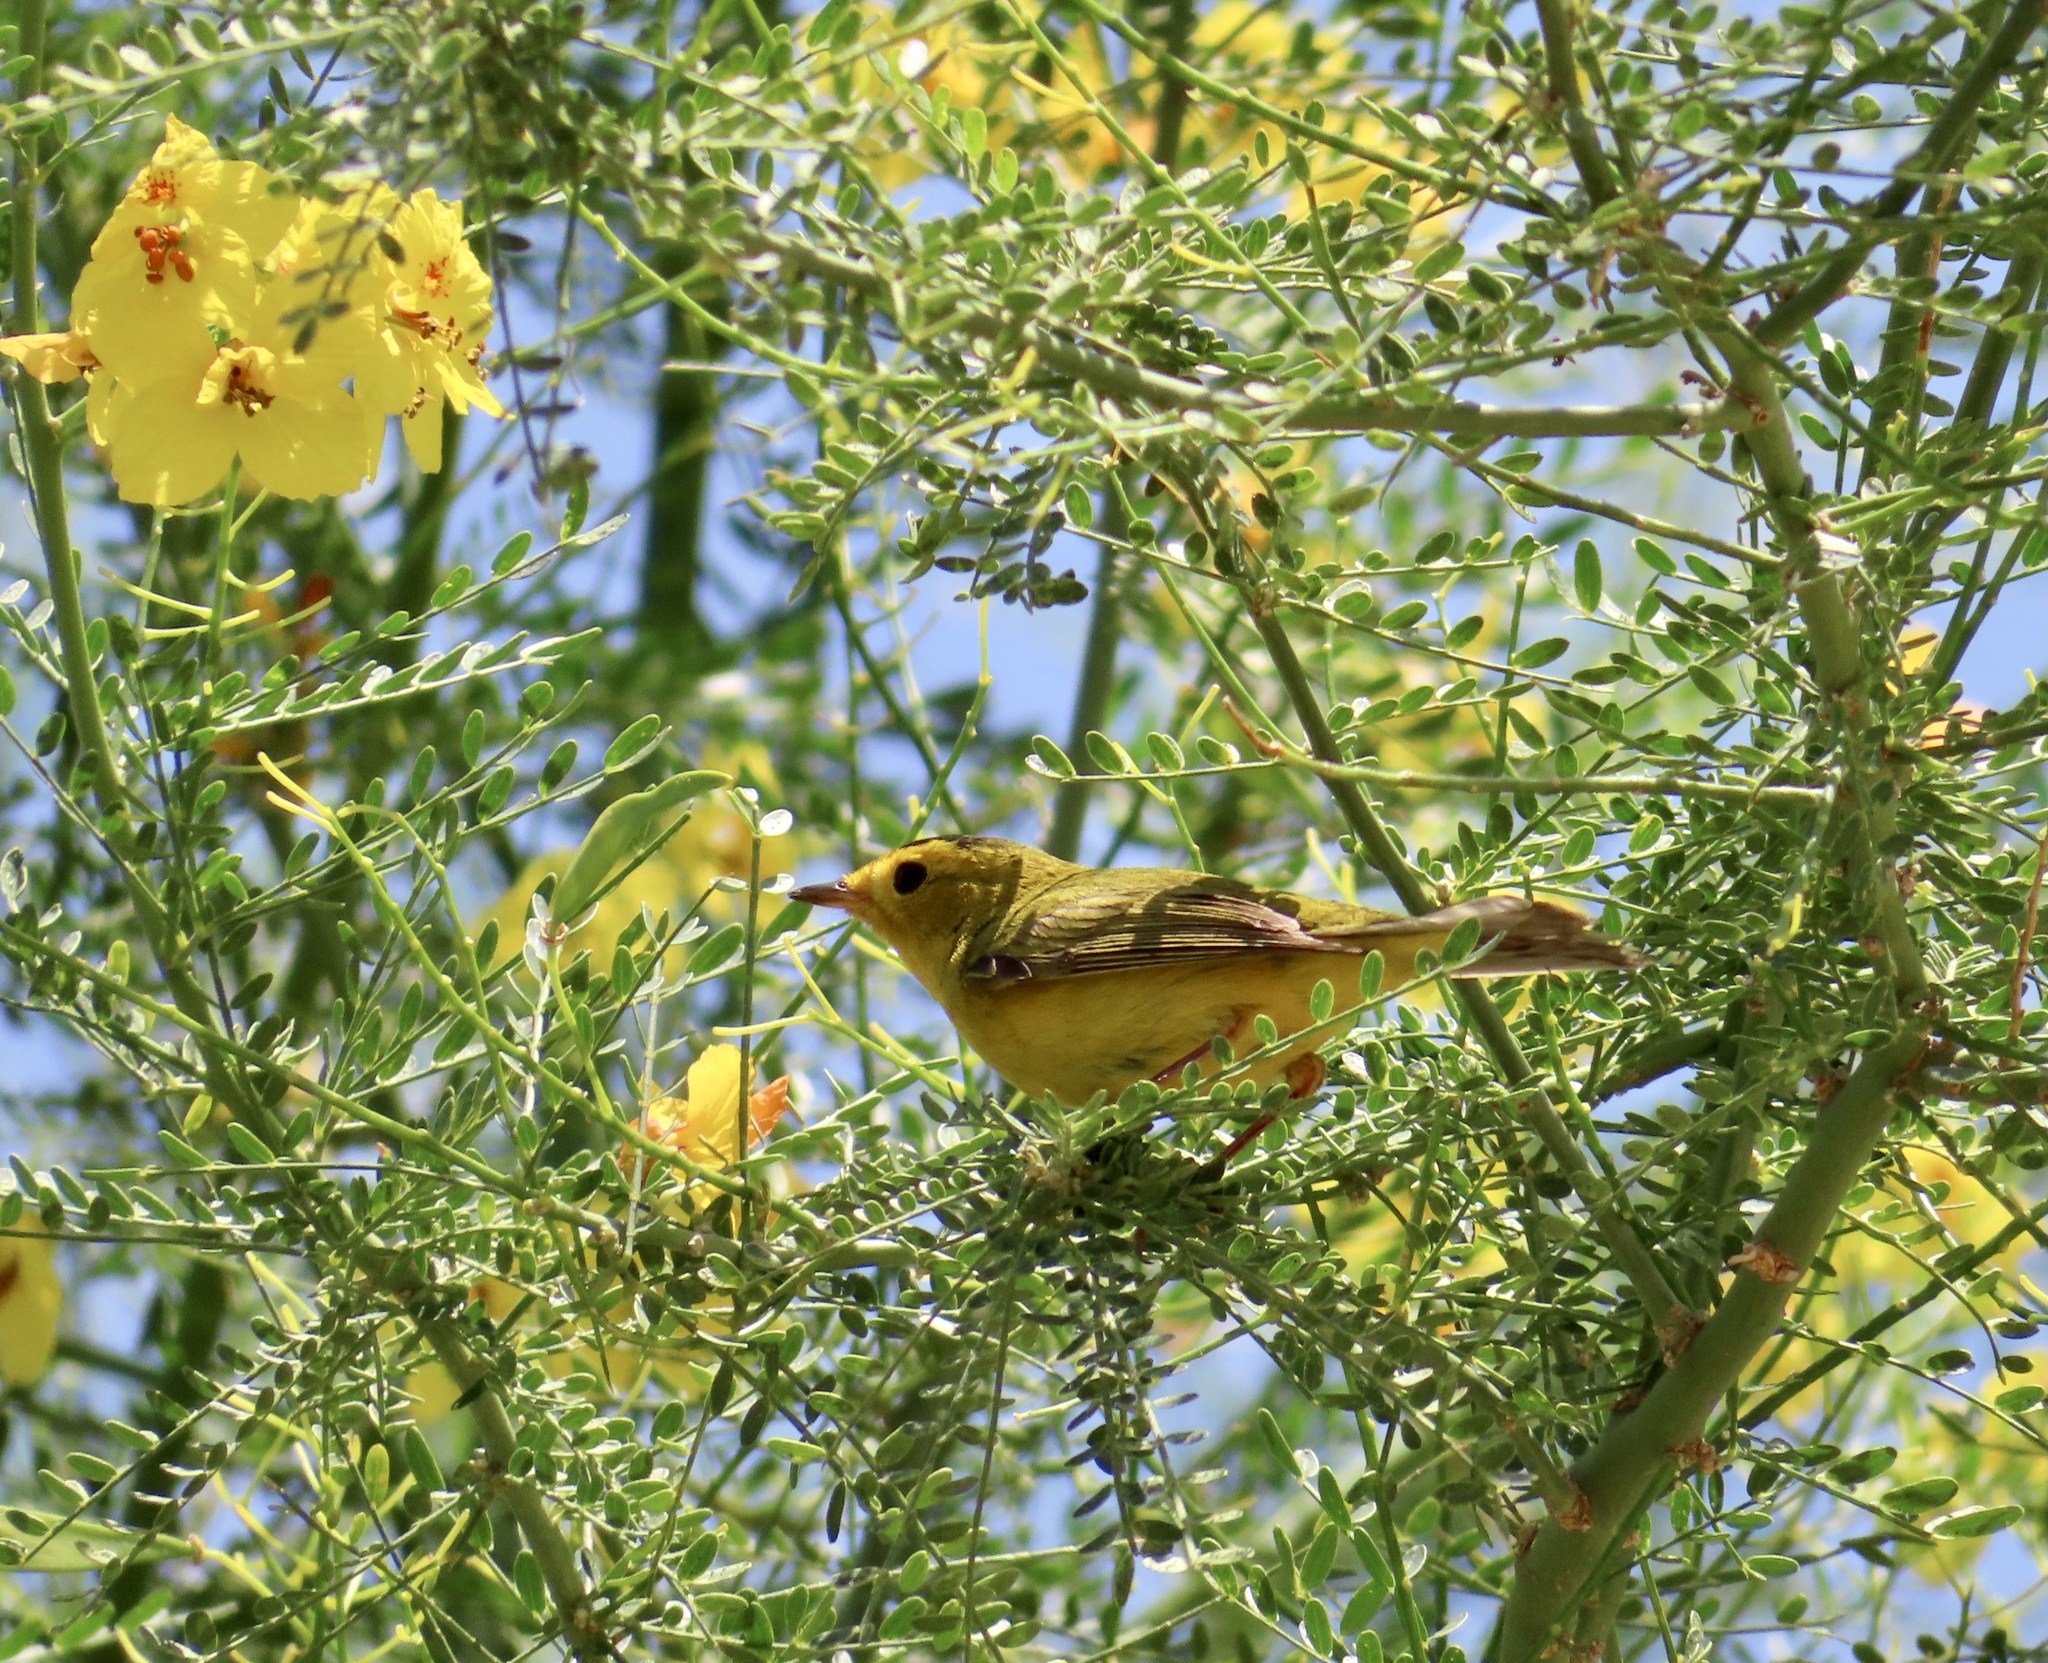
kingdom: Animalia
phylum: Chordata
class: Aves
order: Passeriformes
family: Parulidae
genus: Cardellina
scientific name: Cardellina pusilla
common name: Wilson's warbler
